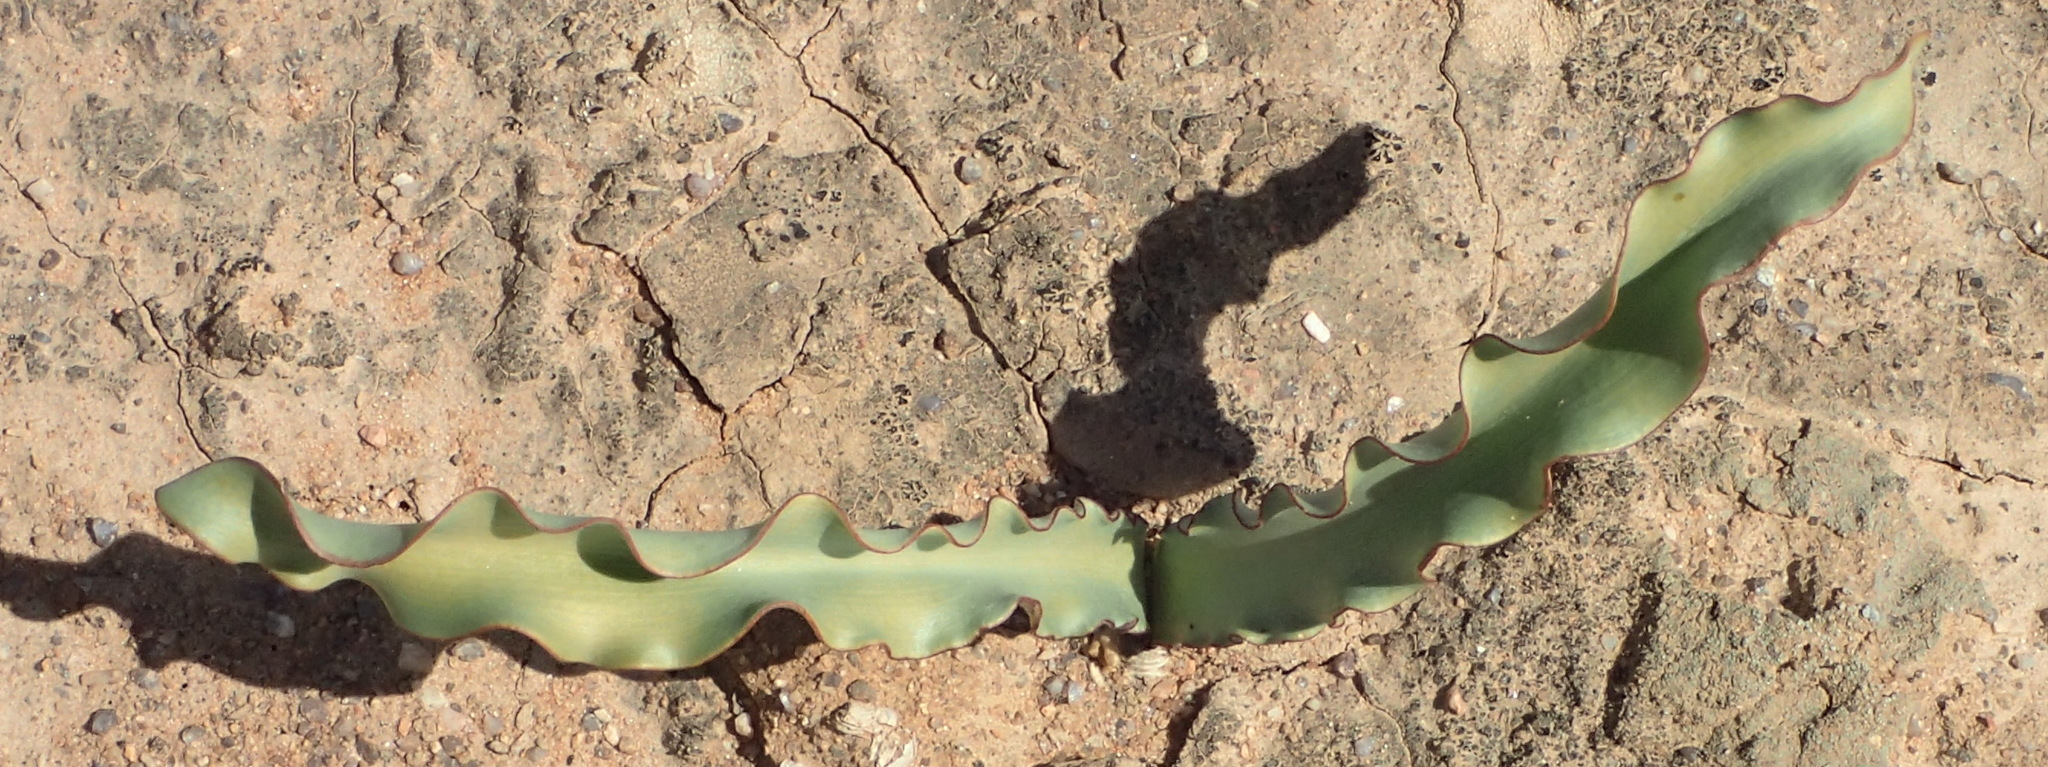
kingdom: Plantae
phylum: Tracheophyta
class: Liliopsida
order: Asparagales
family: Amaryllidaceae
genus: Haemanthus
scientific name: Haemanthus crispus
